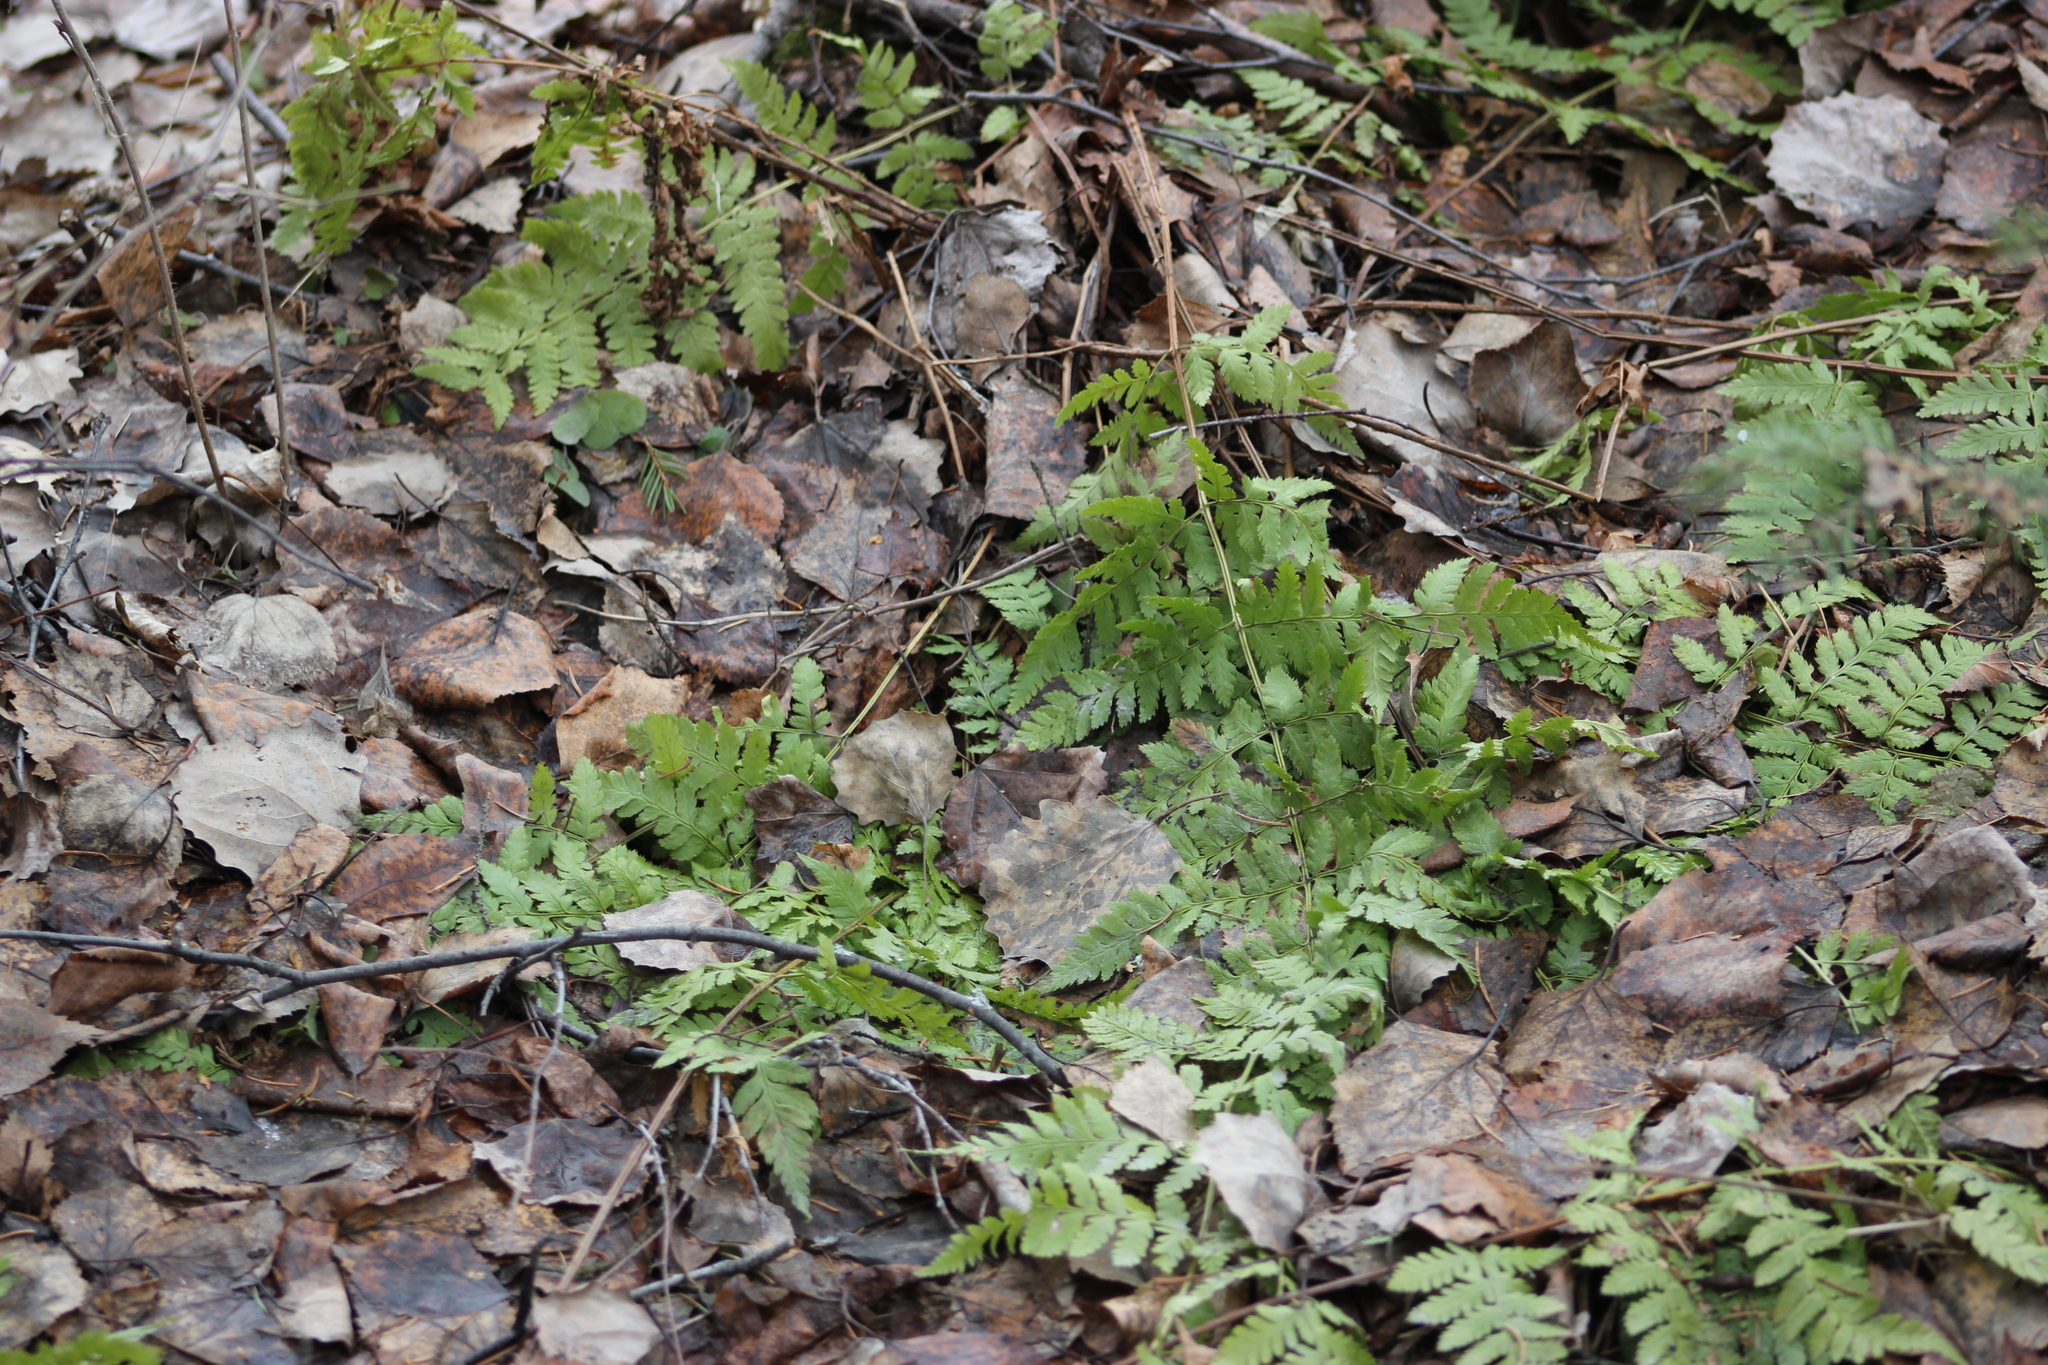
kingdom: Plantae
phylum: Tracheophyta
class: Polypodiopsida
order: Polypodiales
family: Dryopteridaceae
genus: Dryopteris
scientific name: Dryopteris carthusiana
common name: Narrow buckler-fern
